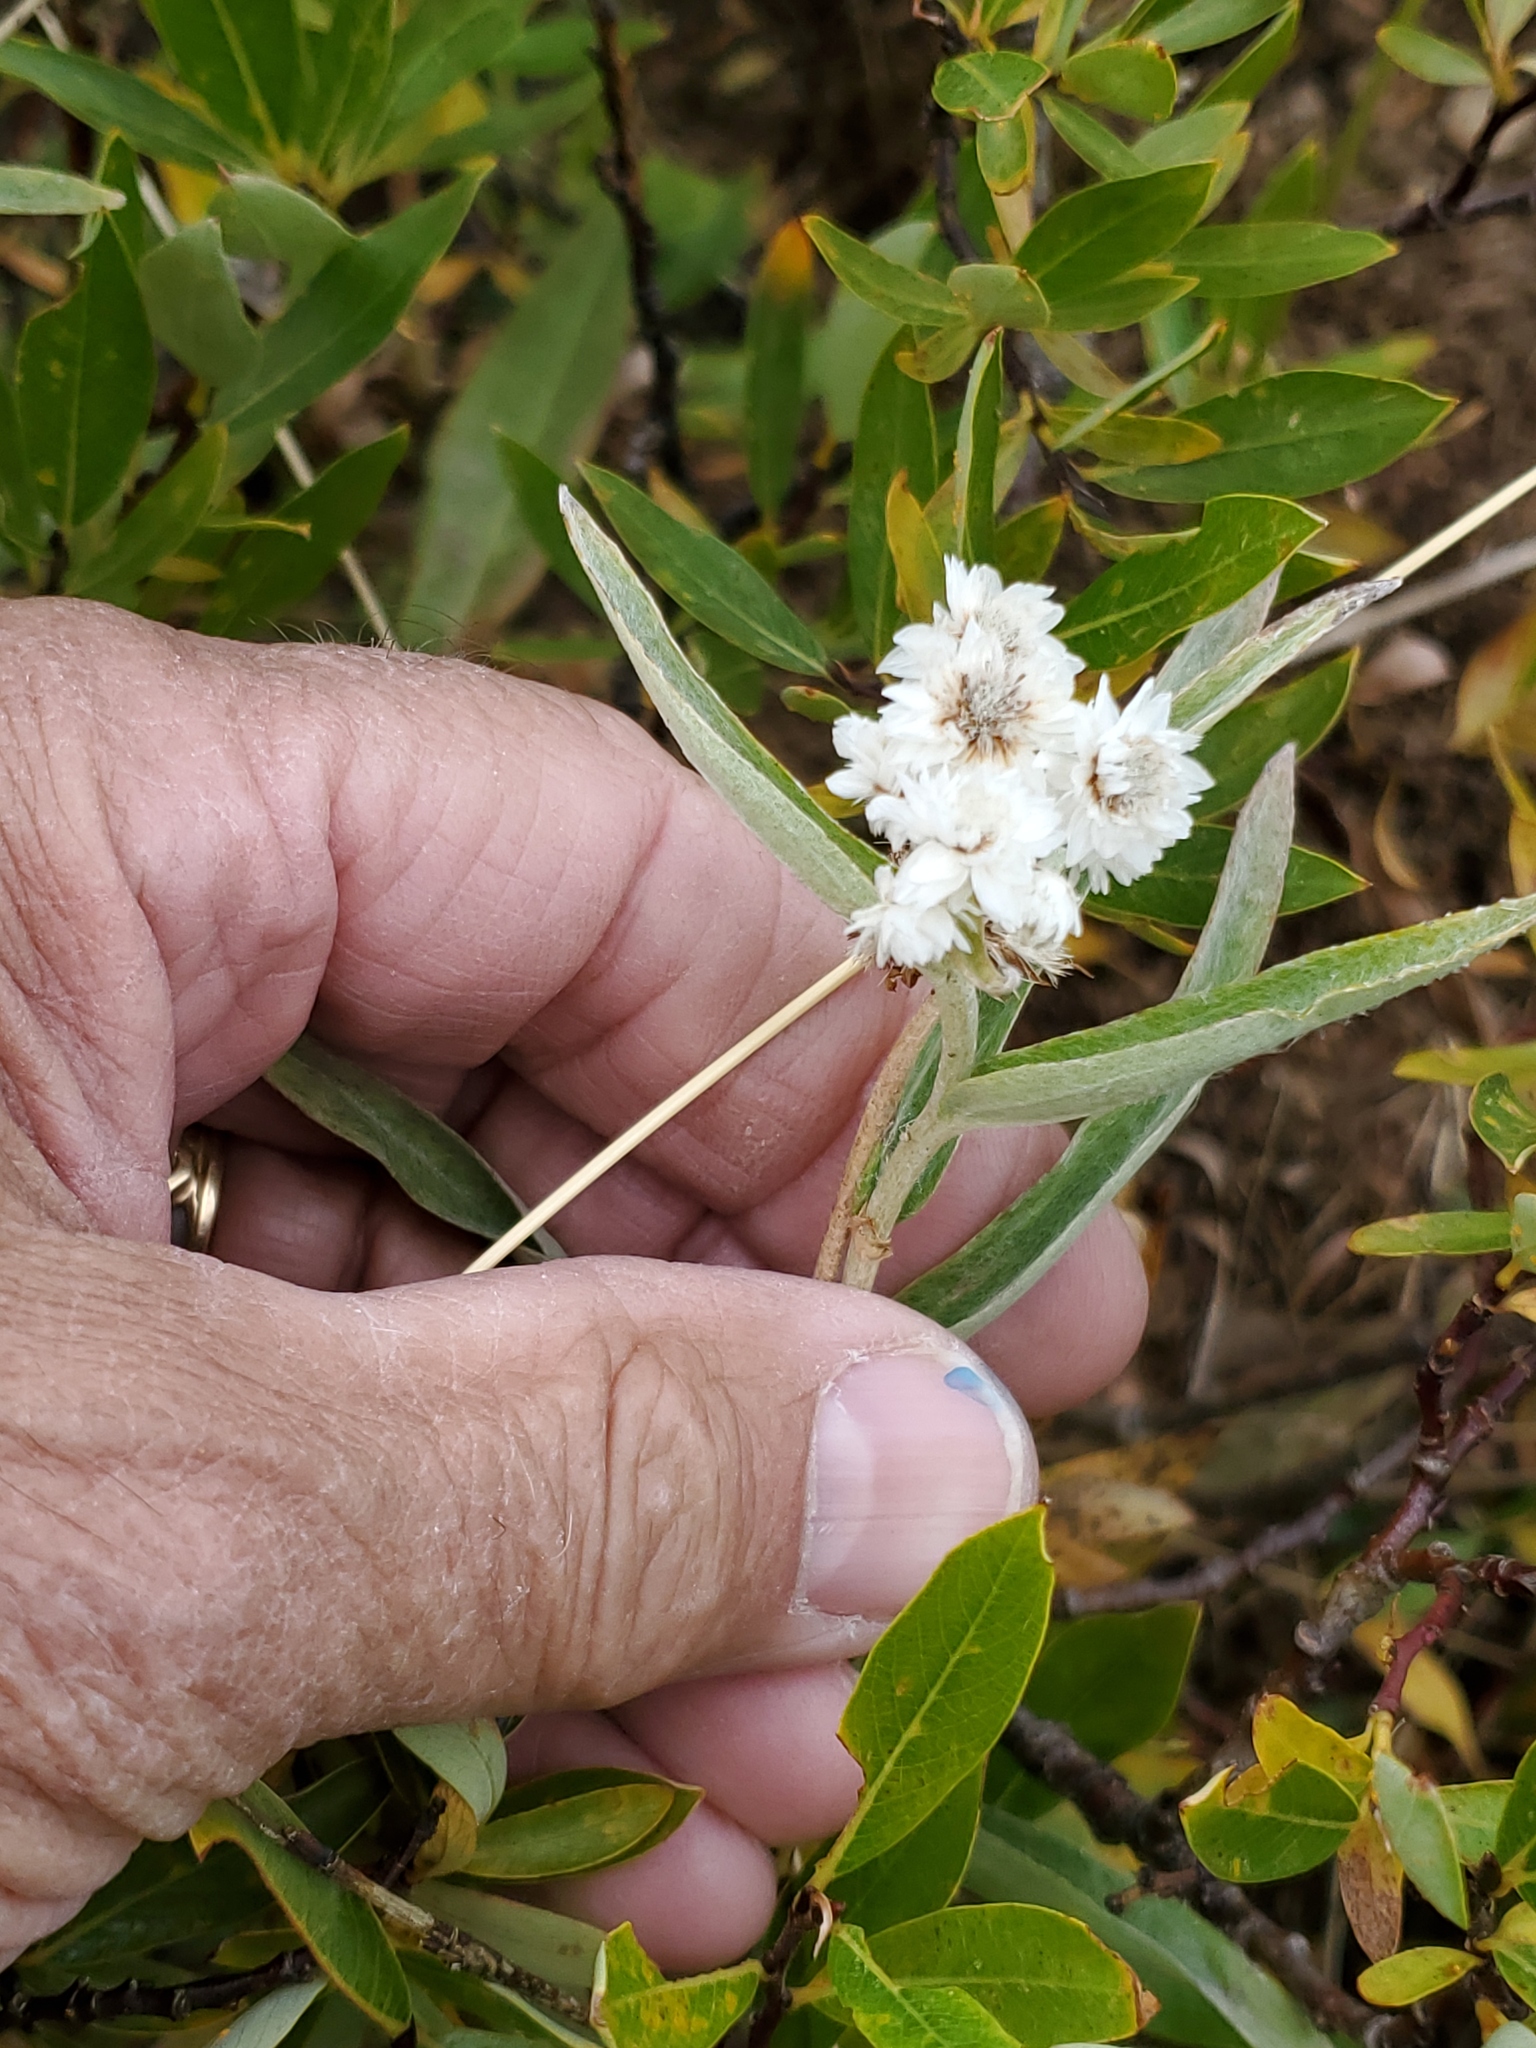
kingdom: Plantae
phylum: Tracheophyta
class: Magnoliopsida
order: Asterales
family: Asteraceae
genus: Anaphalis
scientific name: Anaphalis margaritacea
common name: Pearly everlasting
